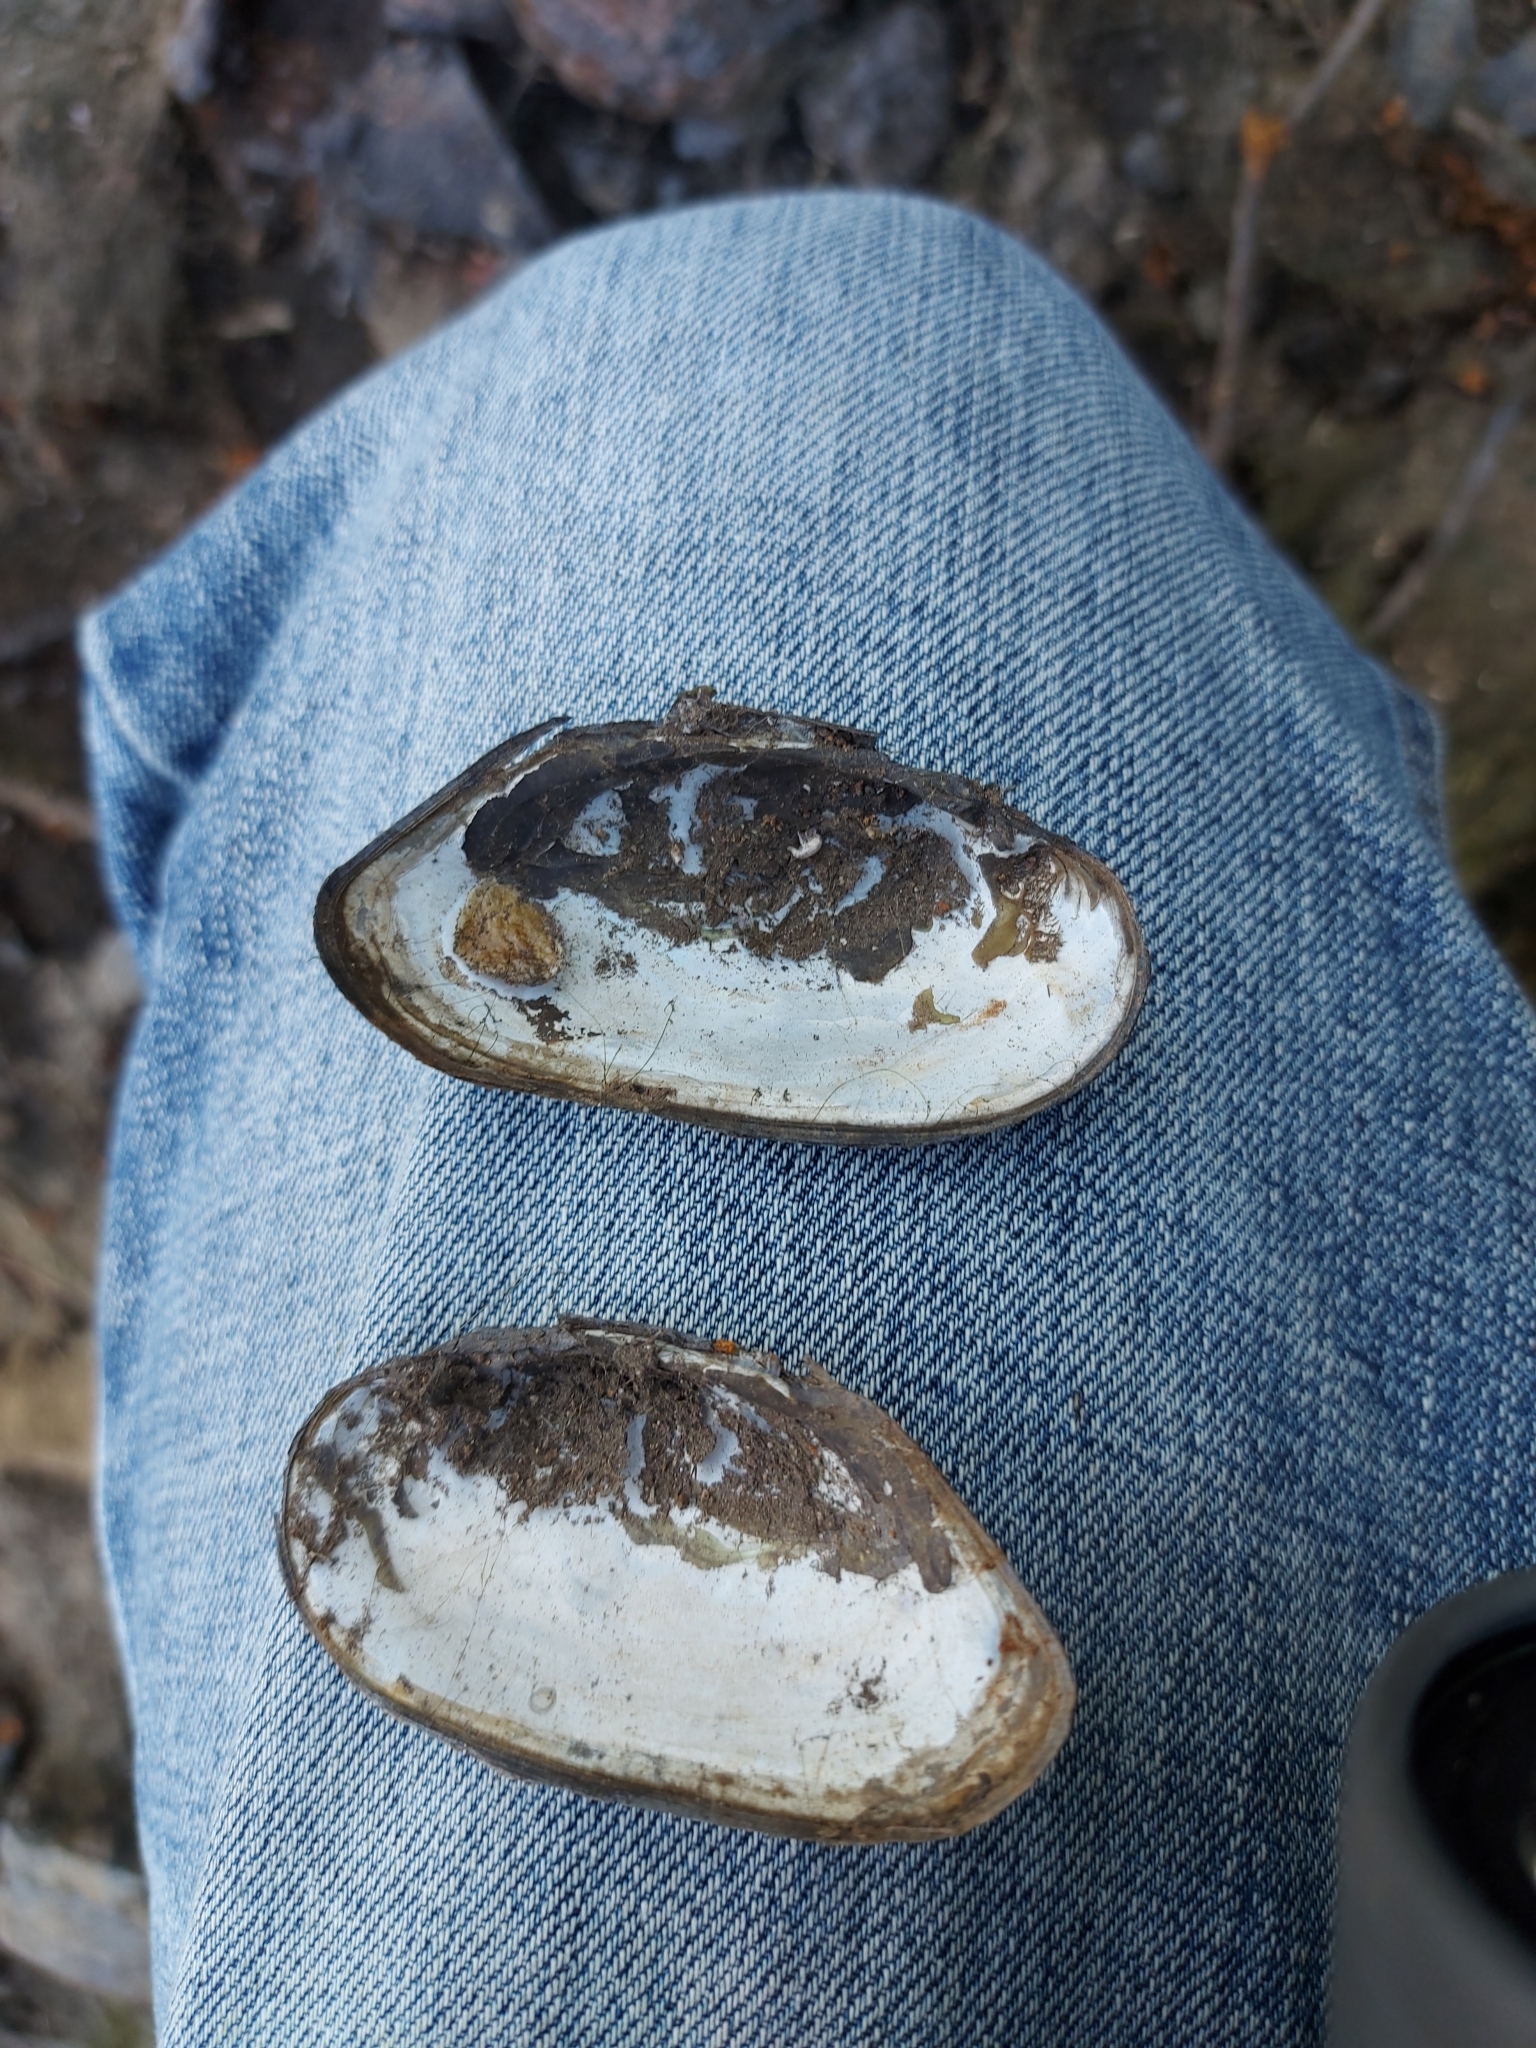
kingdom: Animalia
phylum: Mollusca
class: Bivalvia
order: Unionida
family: Margaritiferidae
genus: Margaritifera
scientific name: Margaritifera margaritifera
